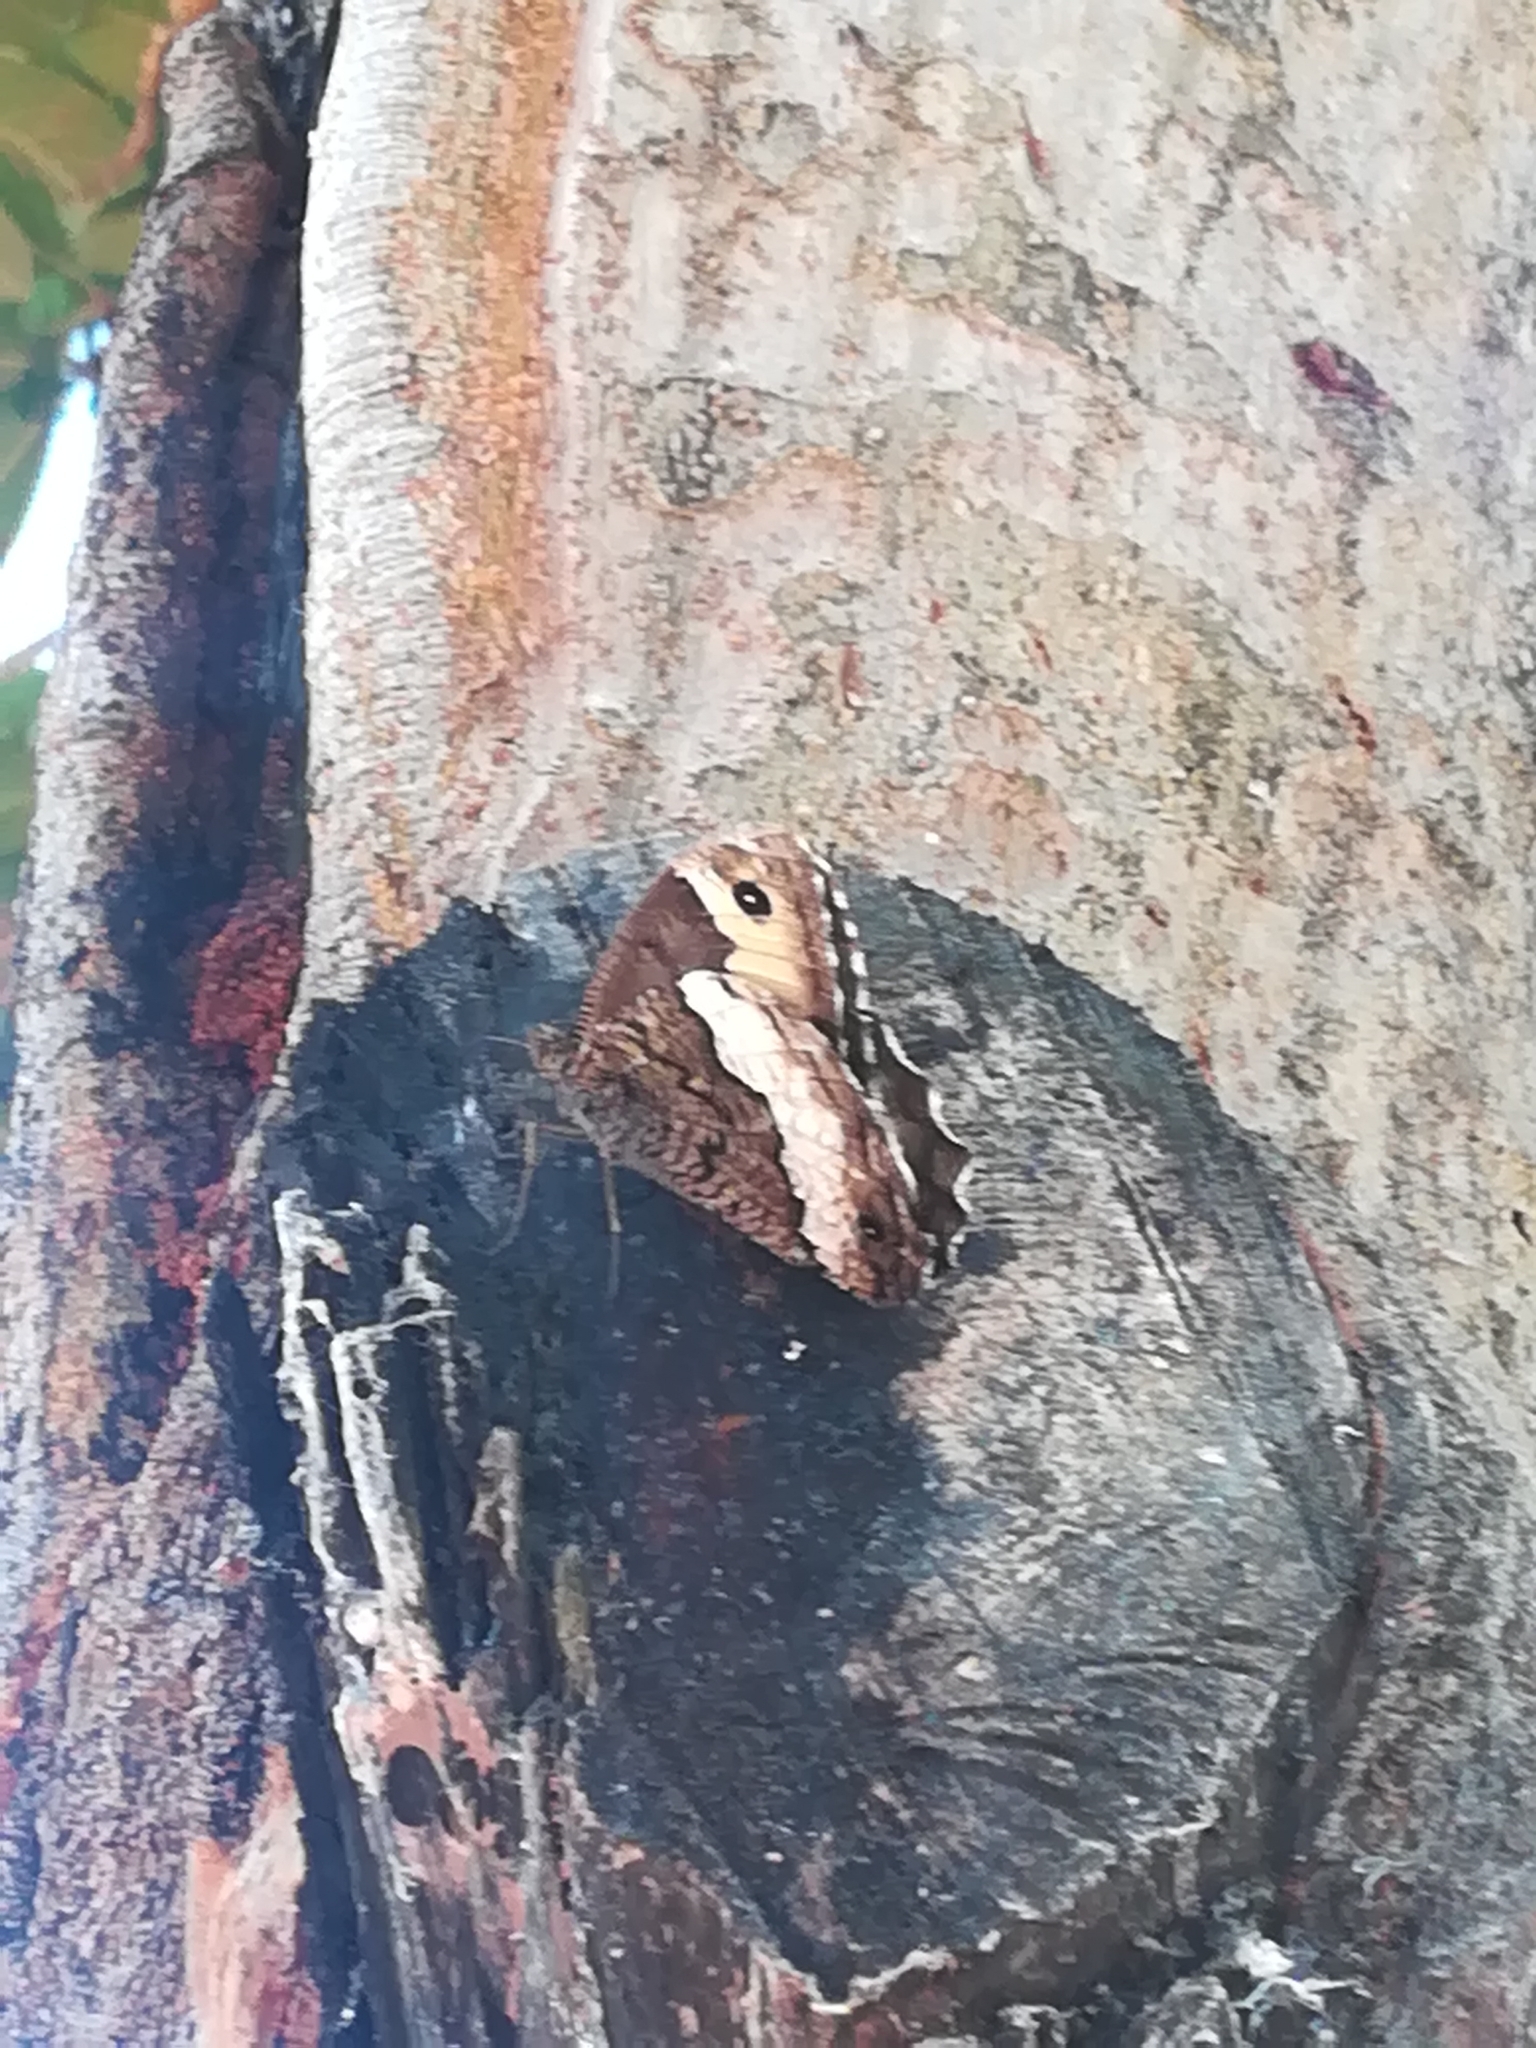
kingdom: Animalia
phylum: Arthropoda
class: Insecta
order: Lepidoptera
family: Nymphalidae
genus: Hipparchia
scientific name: Hipparchia fagi
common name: Woodland grayling
